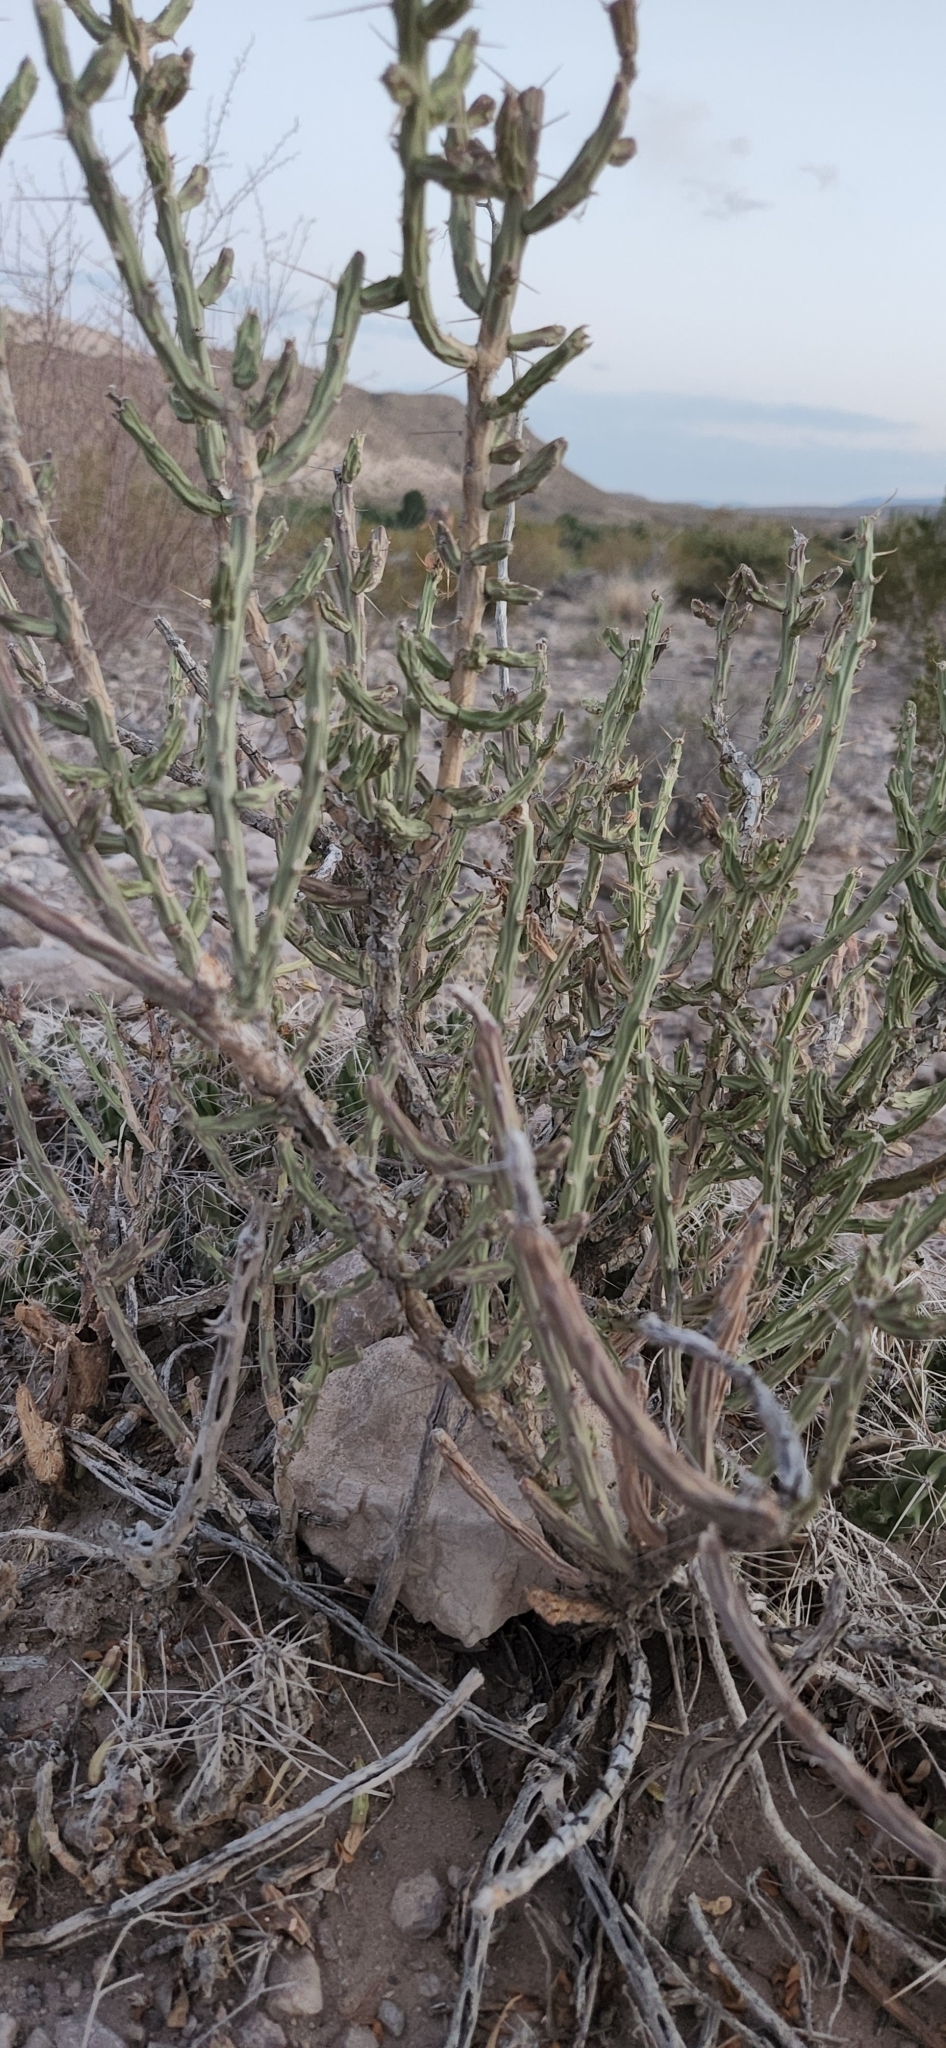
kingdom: Plantae
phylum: Tracheophyta
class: Magnoliopsida
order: Caryophyllales
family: Cactaceae
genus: Cylindropuntia
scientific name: Cylindropuntia leptocaulis
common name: Christmas cactus
